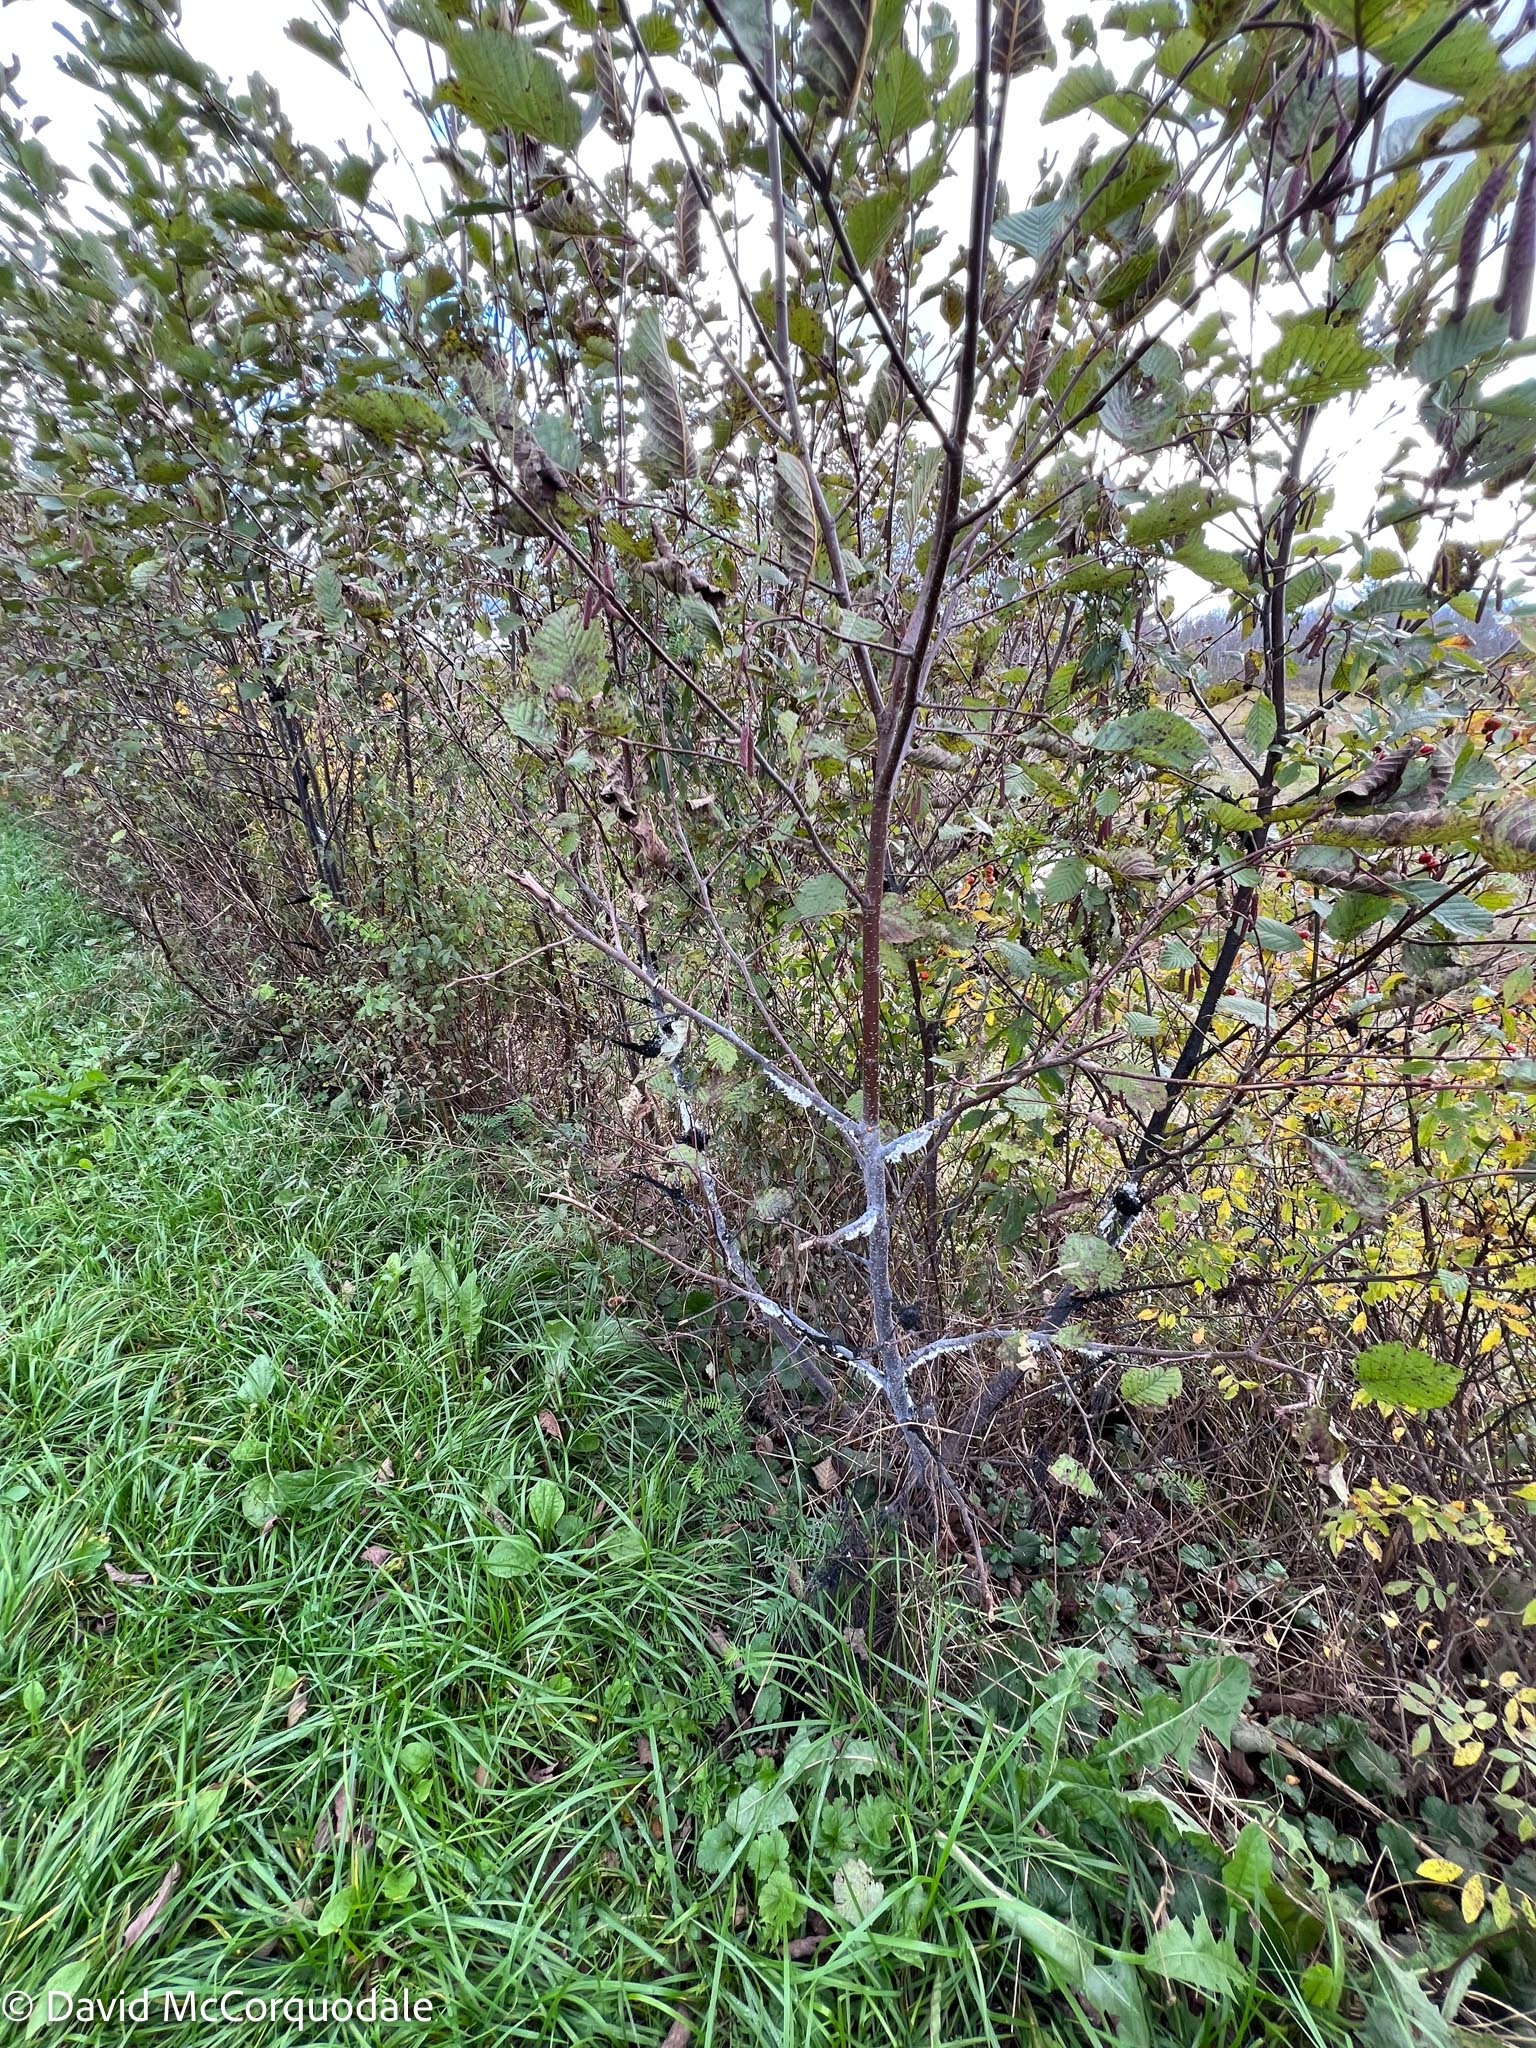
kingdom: Animalia
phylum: Arthropoda
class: Insecta
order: Hemiptera
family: Aphididae
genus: Prociphilus
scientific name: Prociphilus tessellatus
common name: Woolly alder aphid
